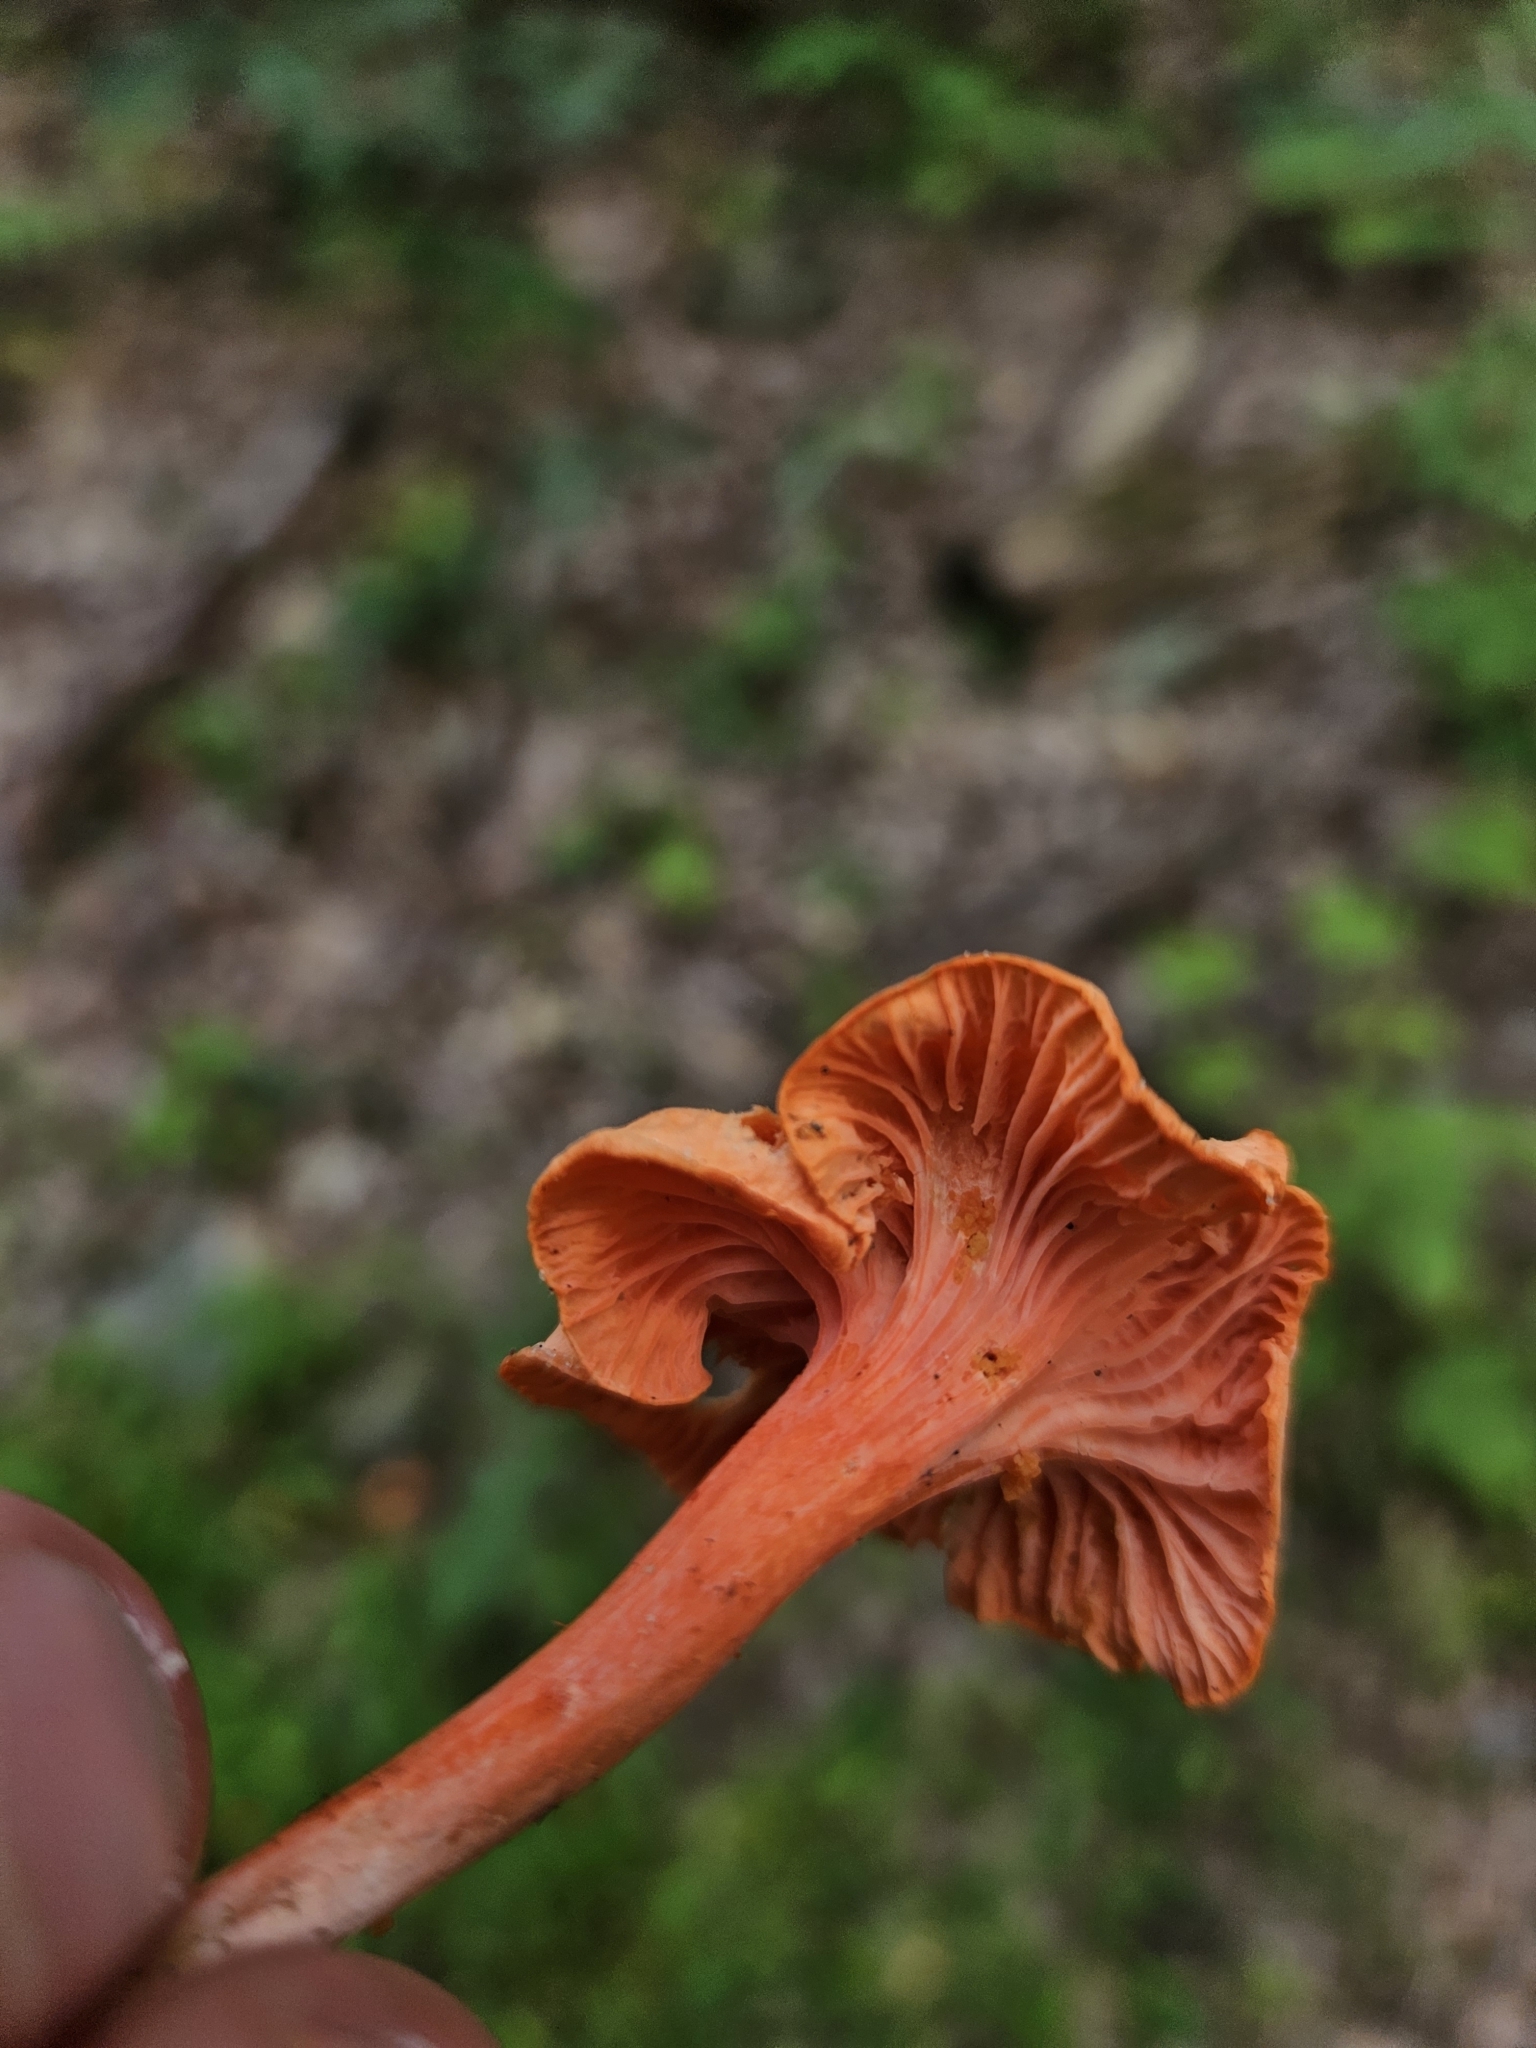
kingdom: Fungi
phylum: Basidiomycota
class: Agaricomycetes
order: Cantharellales
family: Hydnaceae
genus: Cantharellus
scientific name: Cantharellus cinnabarinus
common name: Cinnabar chanterelle
